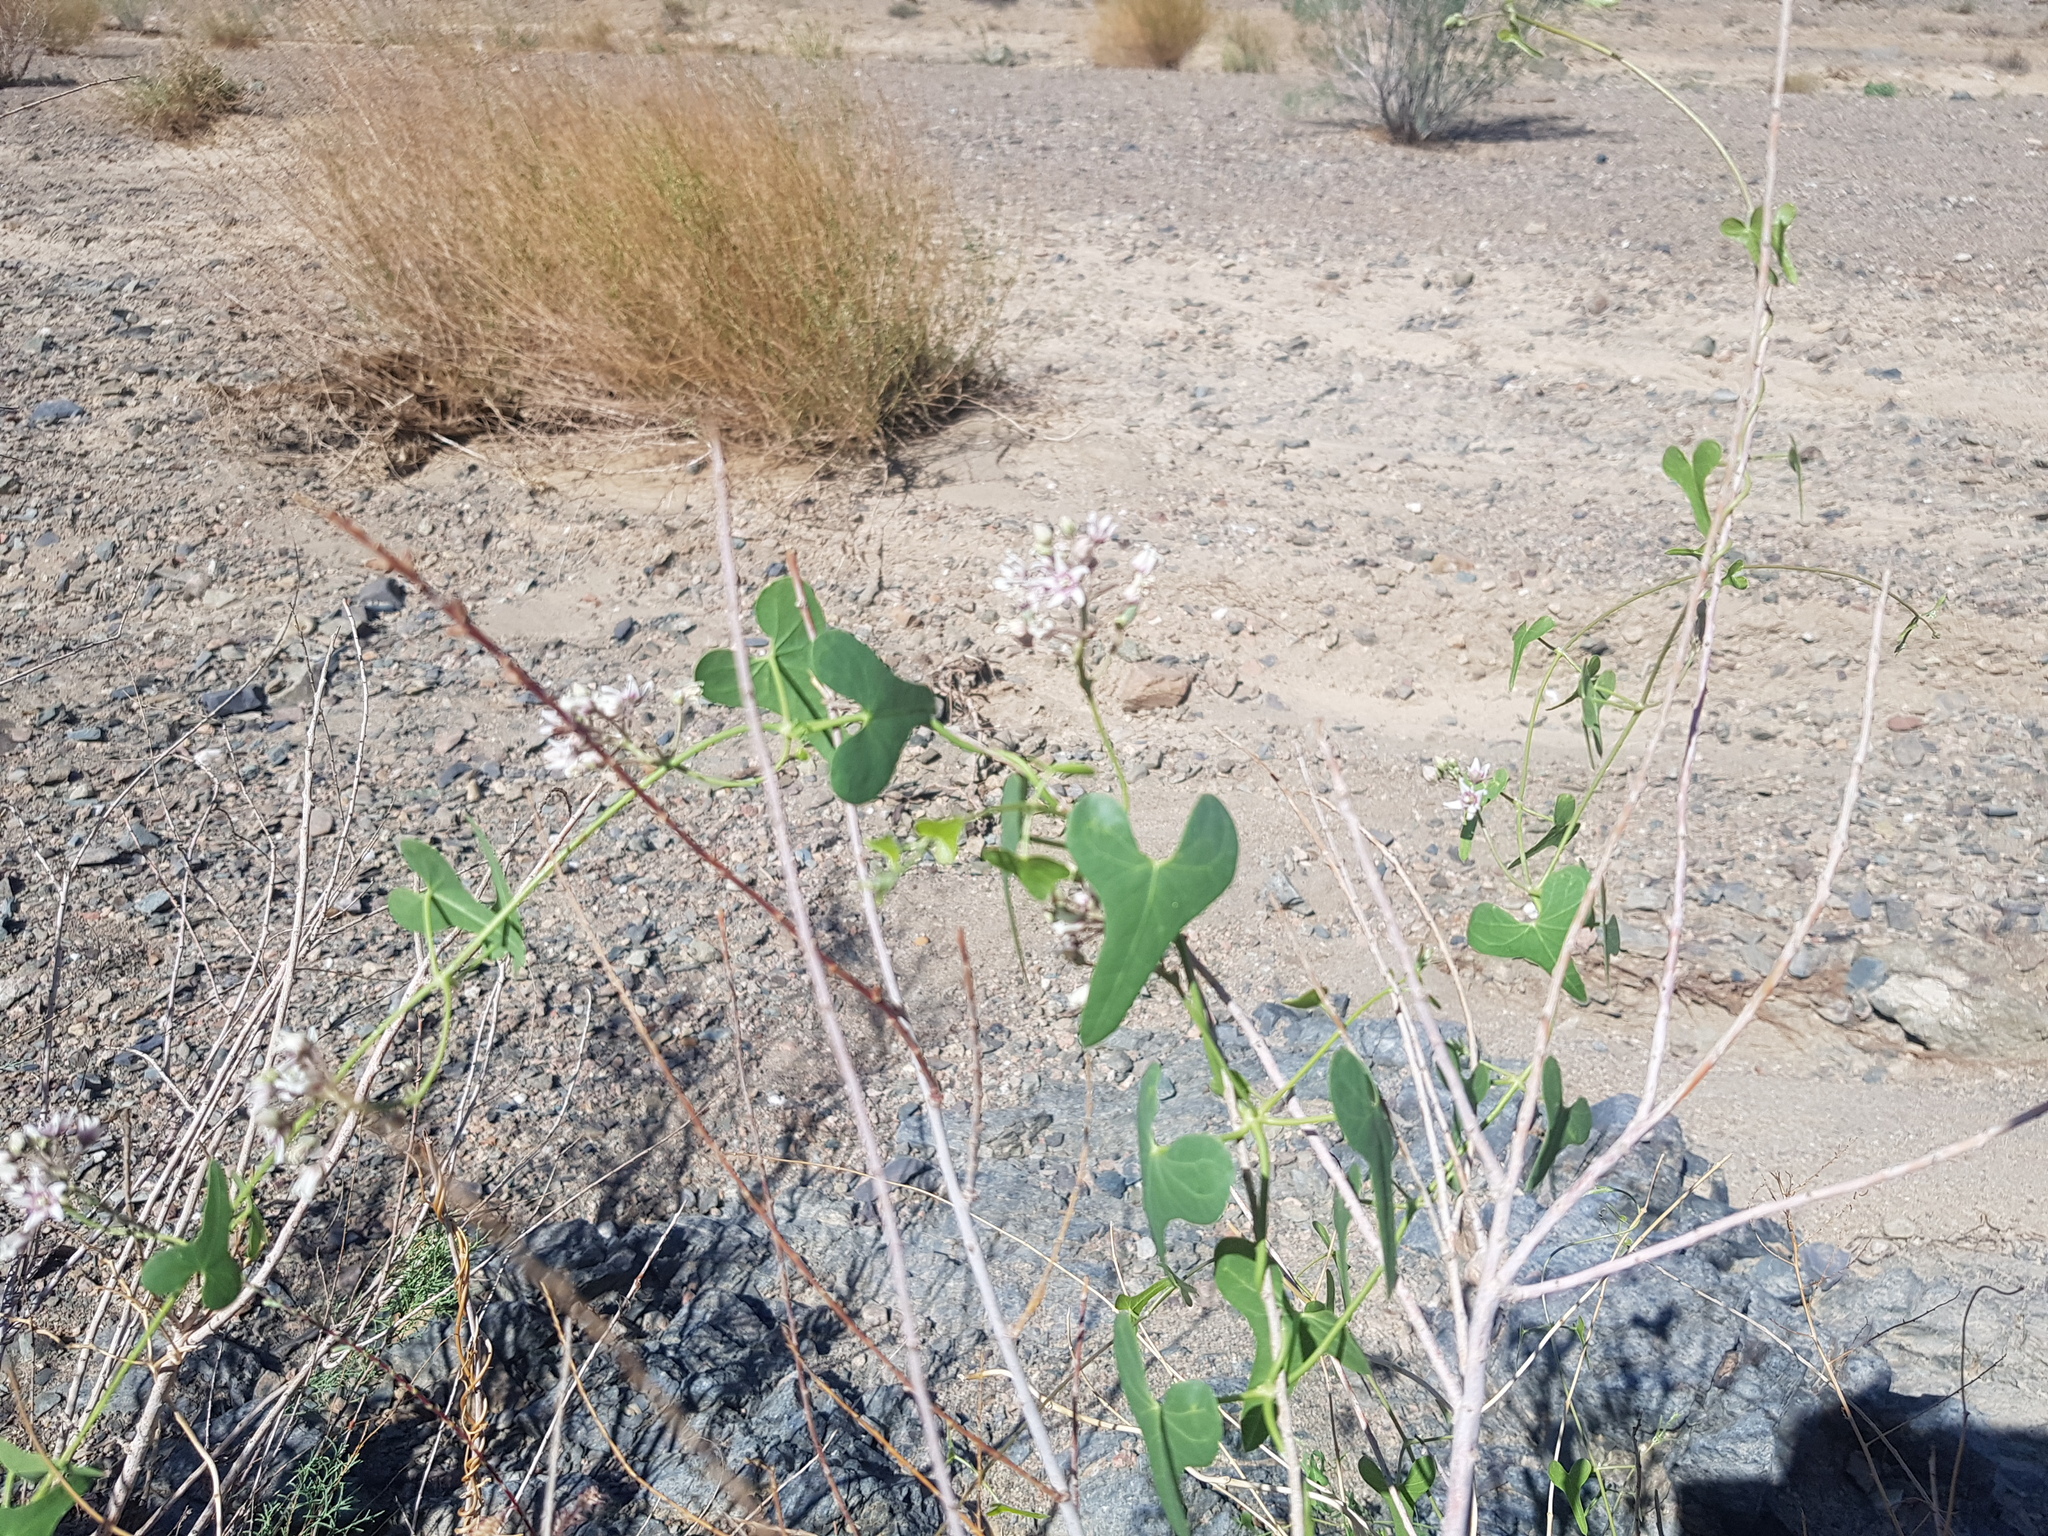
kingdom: Plantae
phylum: Tracheophyta
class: Magnoliopsida
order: Gentianales
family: Apocynaceae
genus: Cynanchum
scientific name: Cynanchum acutum
